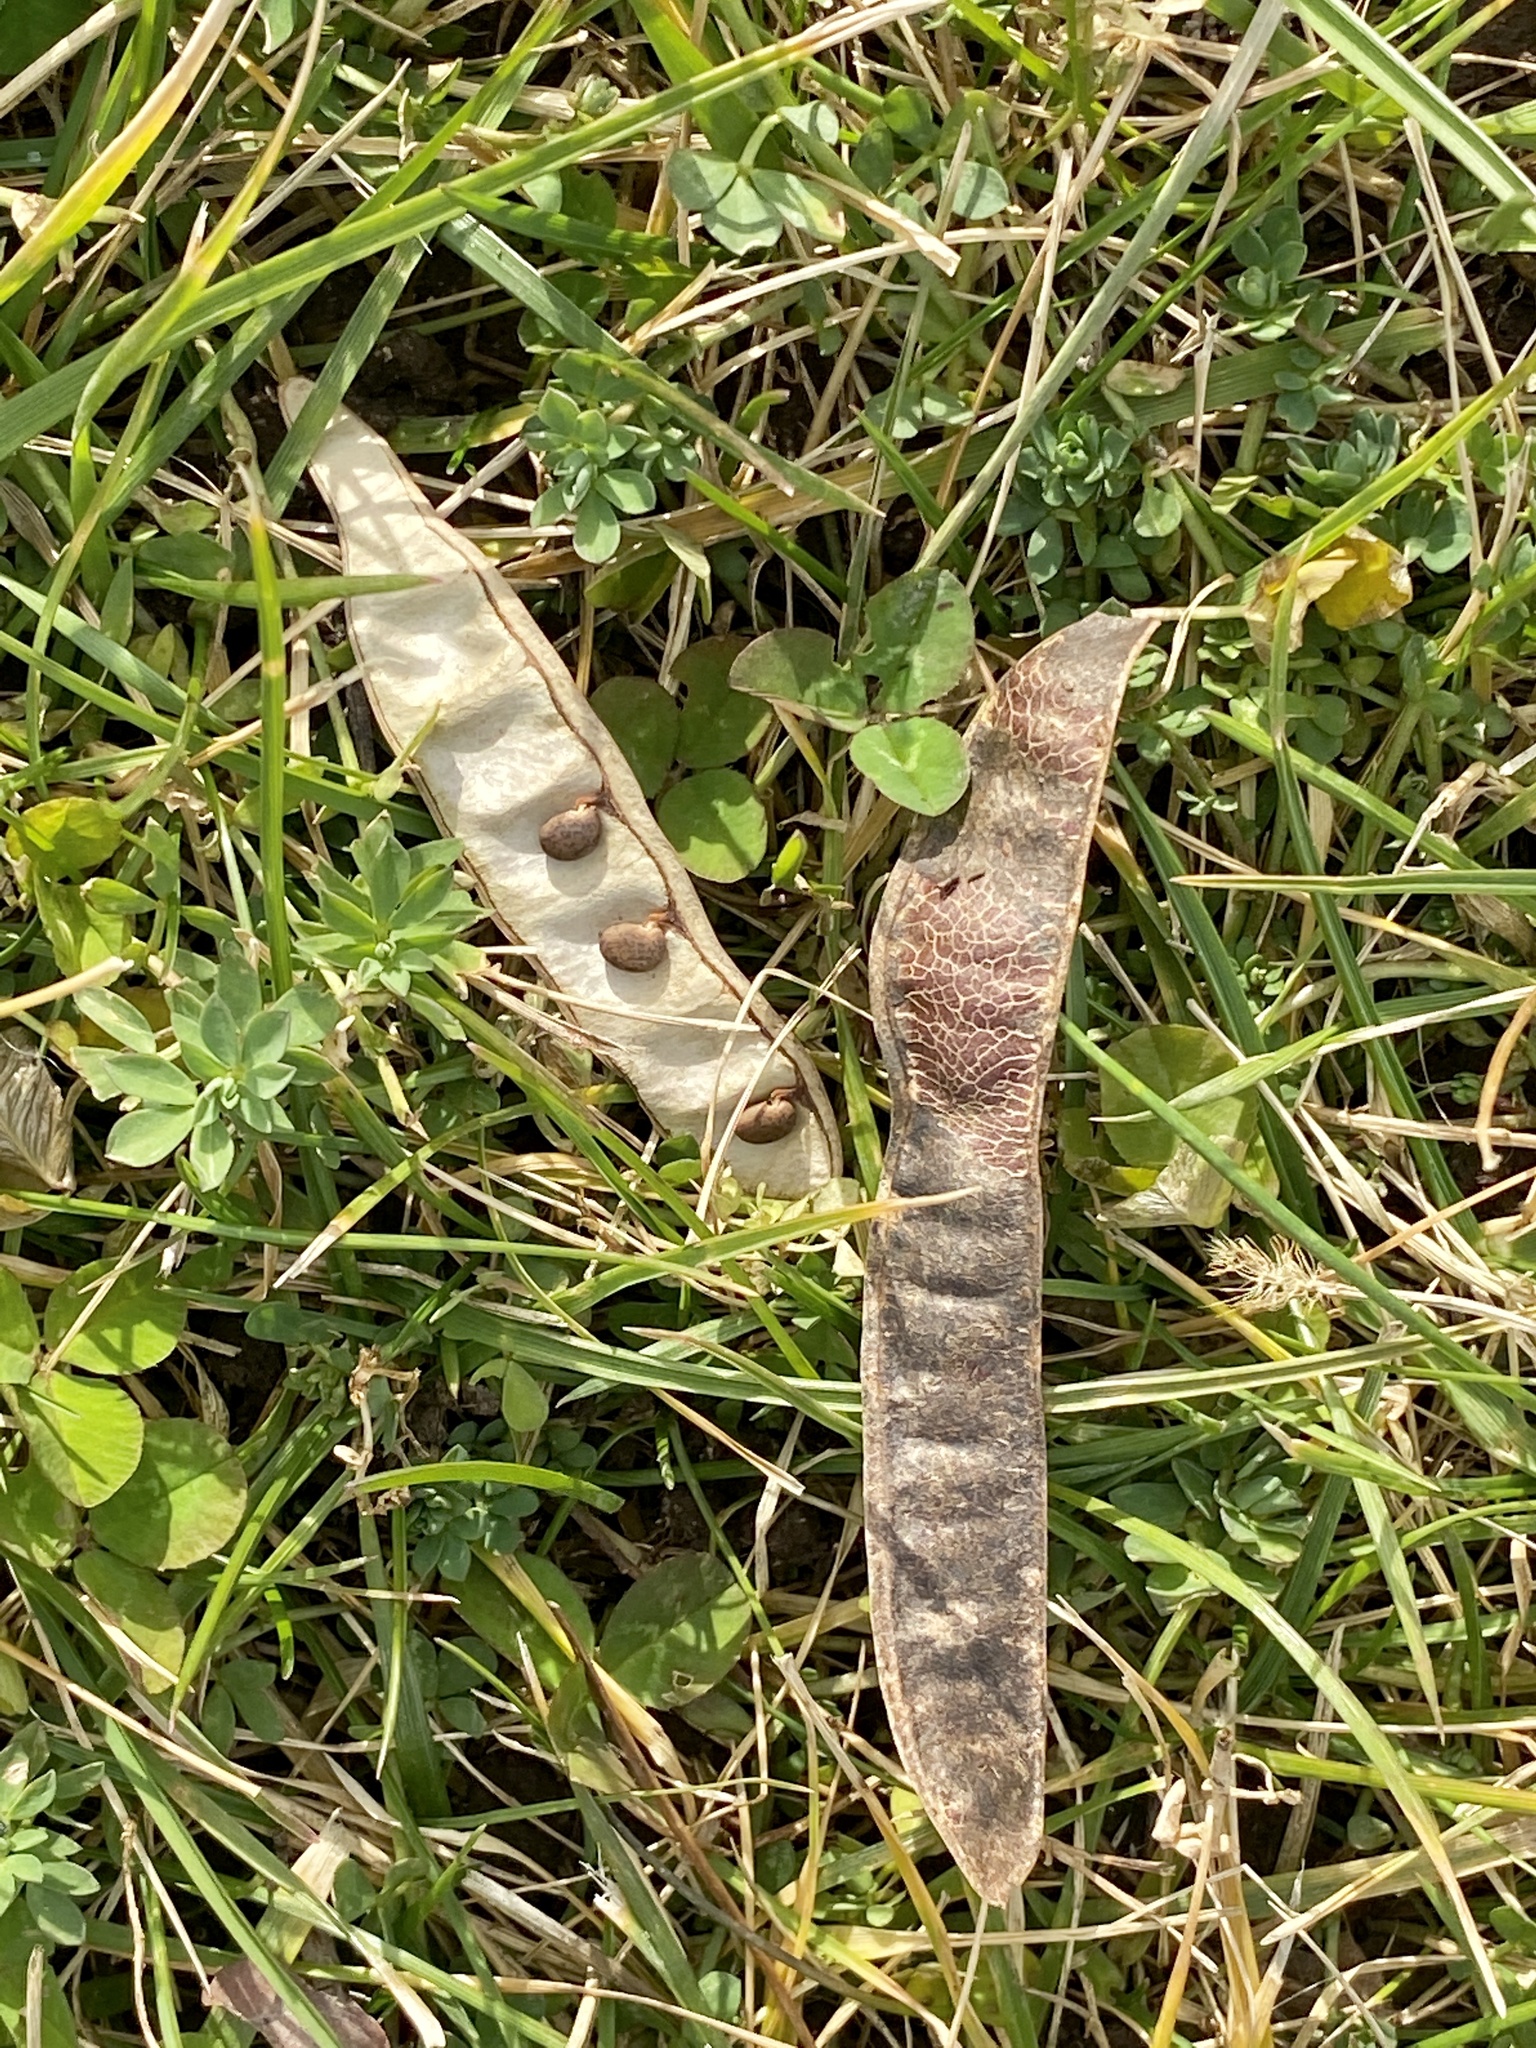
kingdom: Plantae
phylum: Tracheophyta
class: Magnoliopsida
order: Fabales
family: Fabaceae
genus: Robinia
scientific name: Robinia pseudoacacia
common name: Black locust
